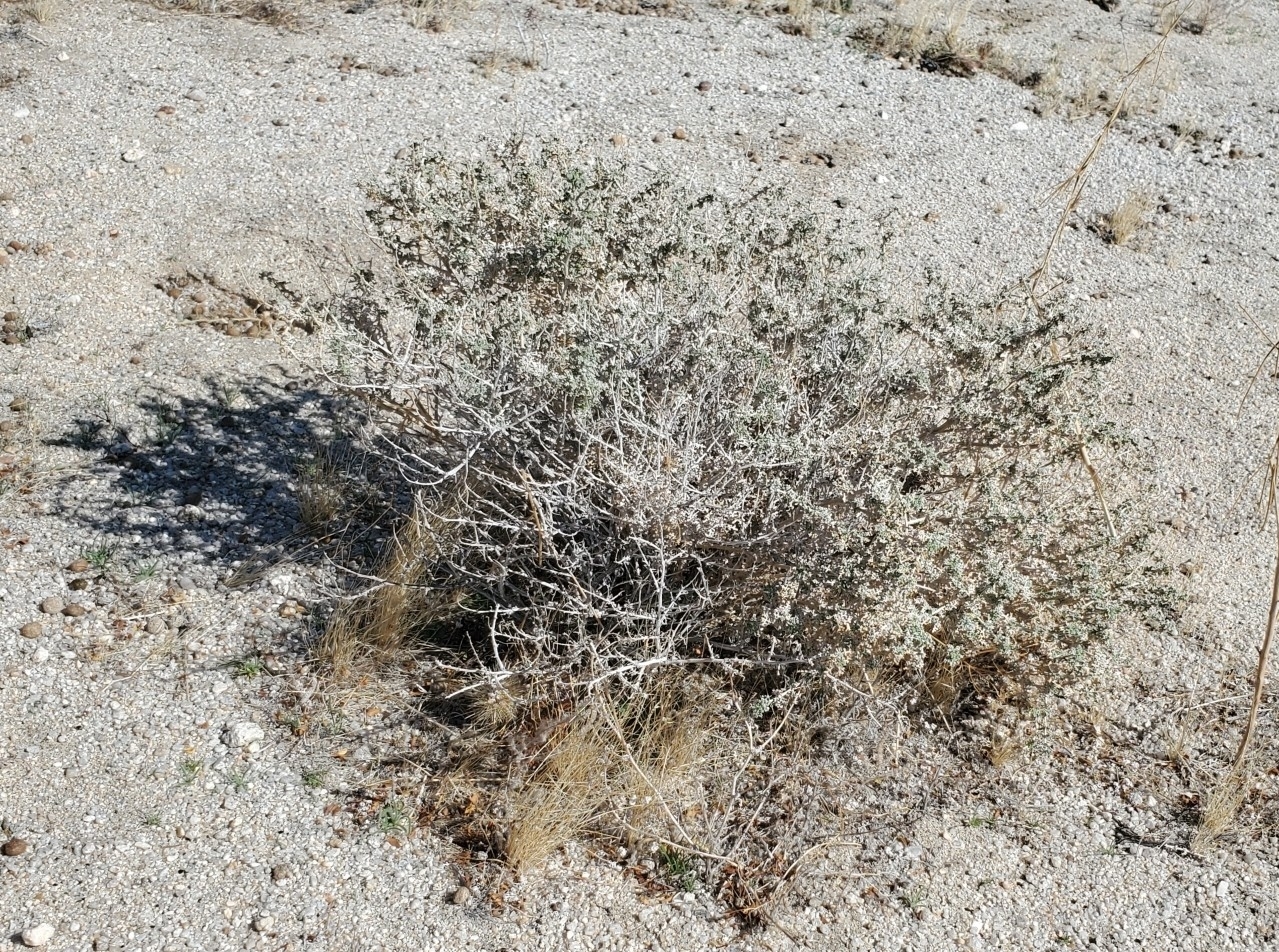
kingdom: Plantae
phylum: Tracheophyta
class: Magnoliopsida
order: Asterales
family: Asteraceae
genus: Ambrosia
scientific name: Ambrosia dumosa
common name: Bur-sage
